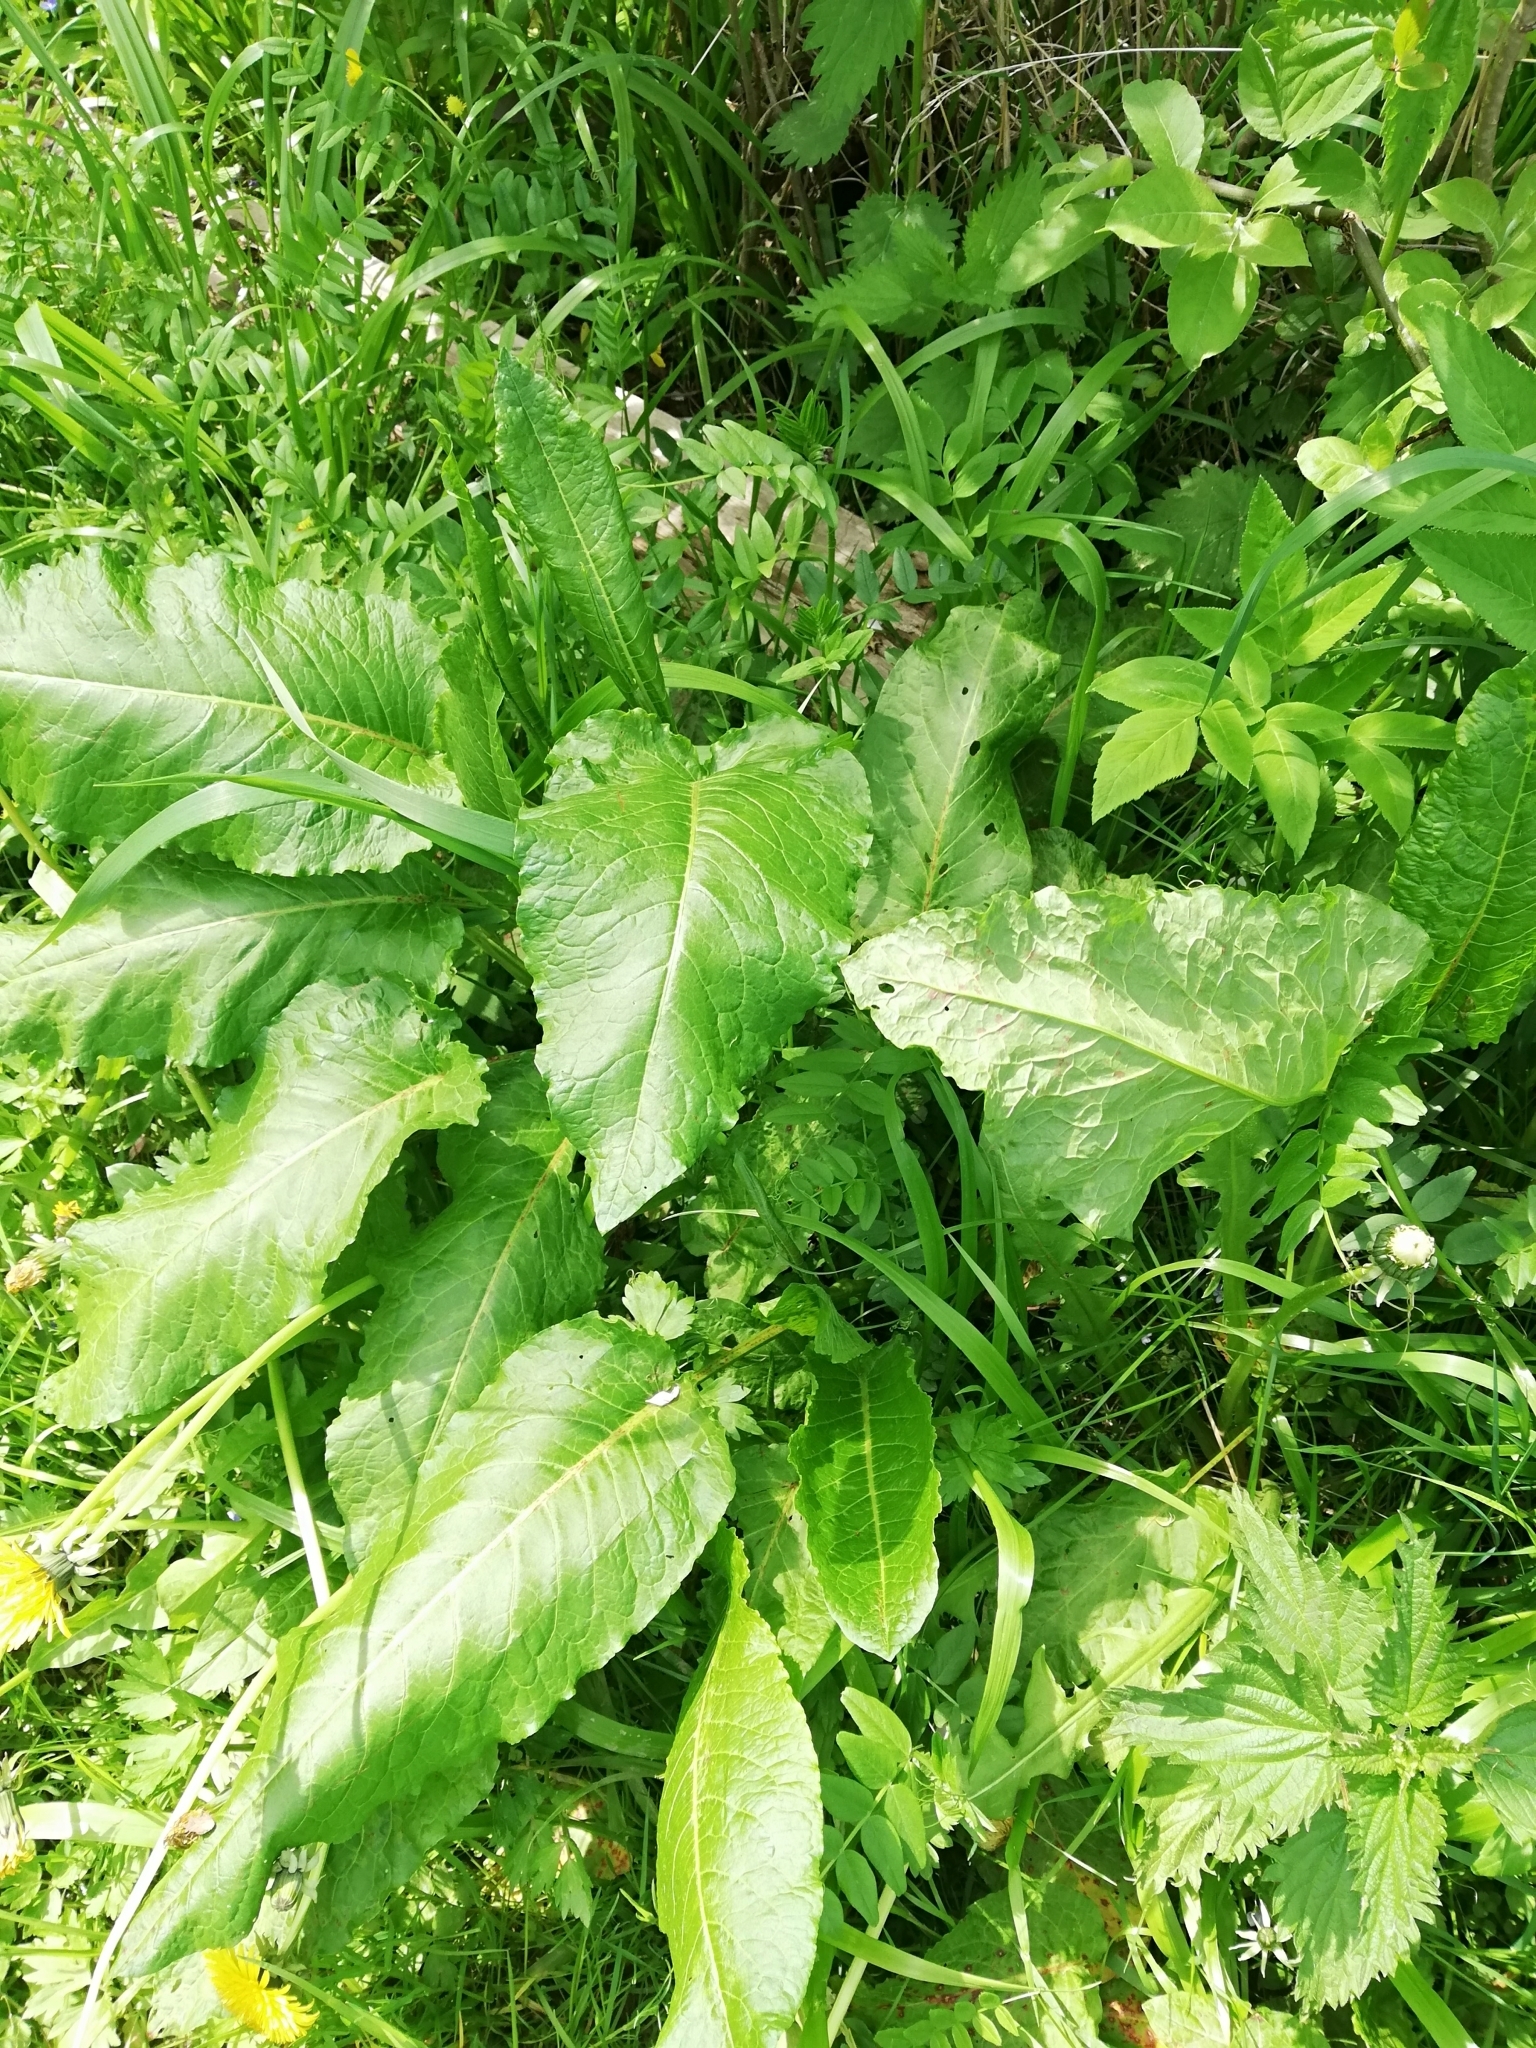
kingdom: Plantae
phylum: Tracheophyta
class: Magnoliopsida
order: Caryophyllales
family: Polygonaceae
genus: Rumex
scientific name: Rumex obtusifolius
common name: Bitter dock
